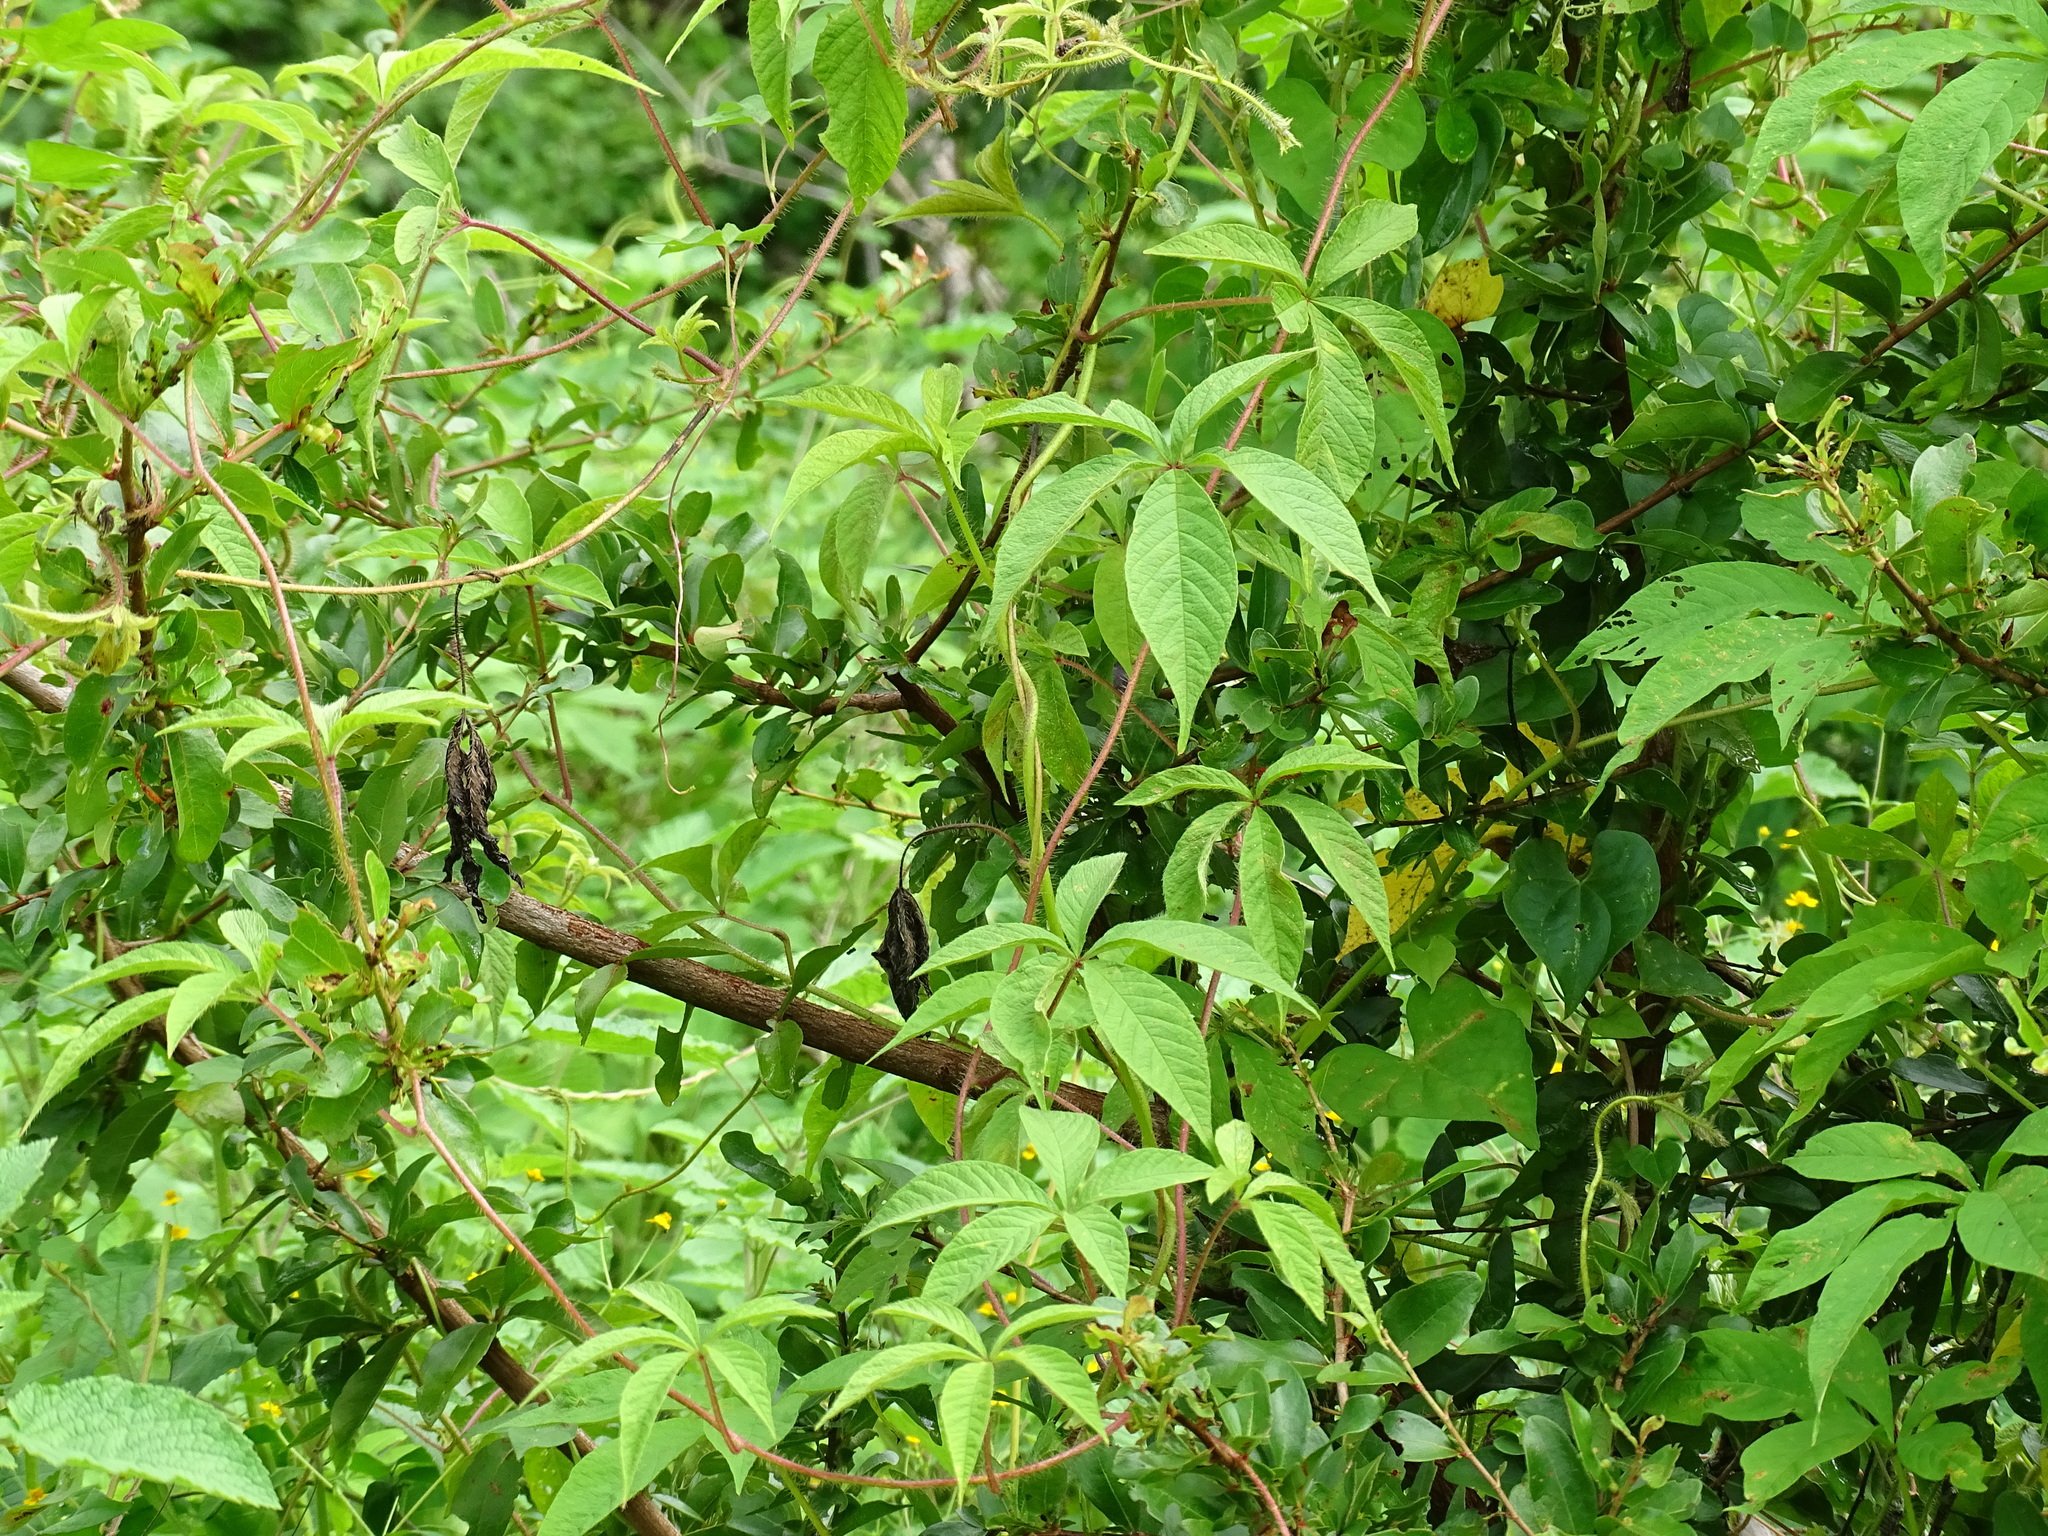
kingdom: Plantae
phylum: Tracheophyta
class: Magnoliopsida
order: Solanales
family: Convolvulaceae
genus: Distimake
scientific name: Distimake aegyptius
